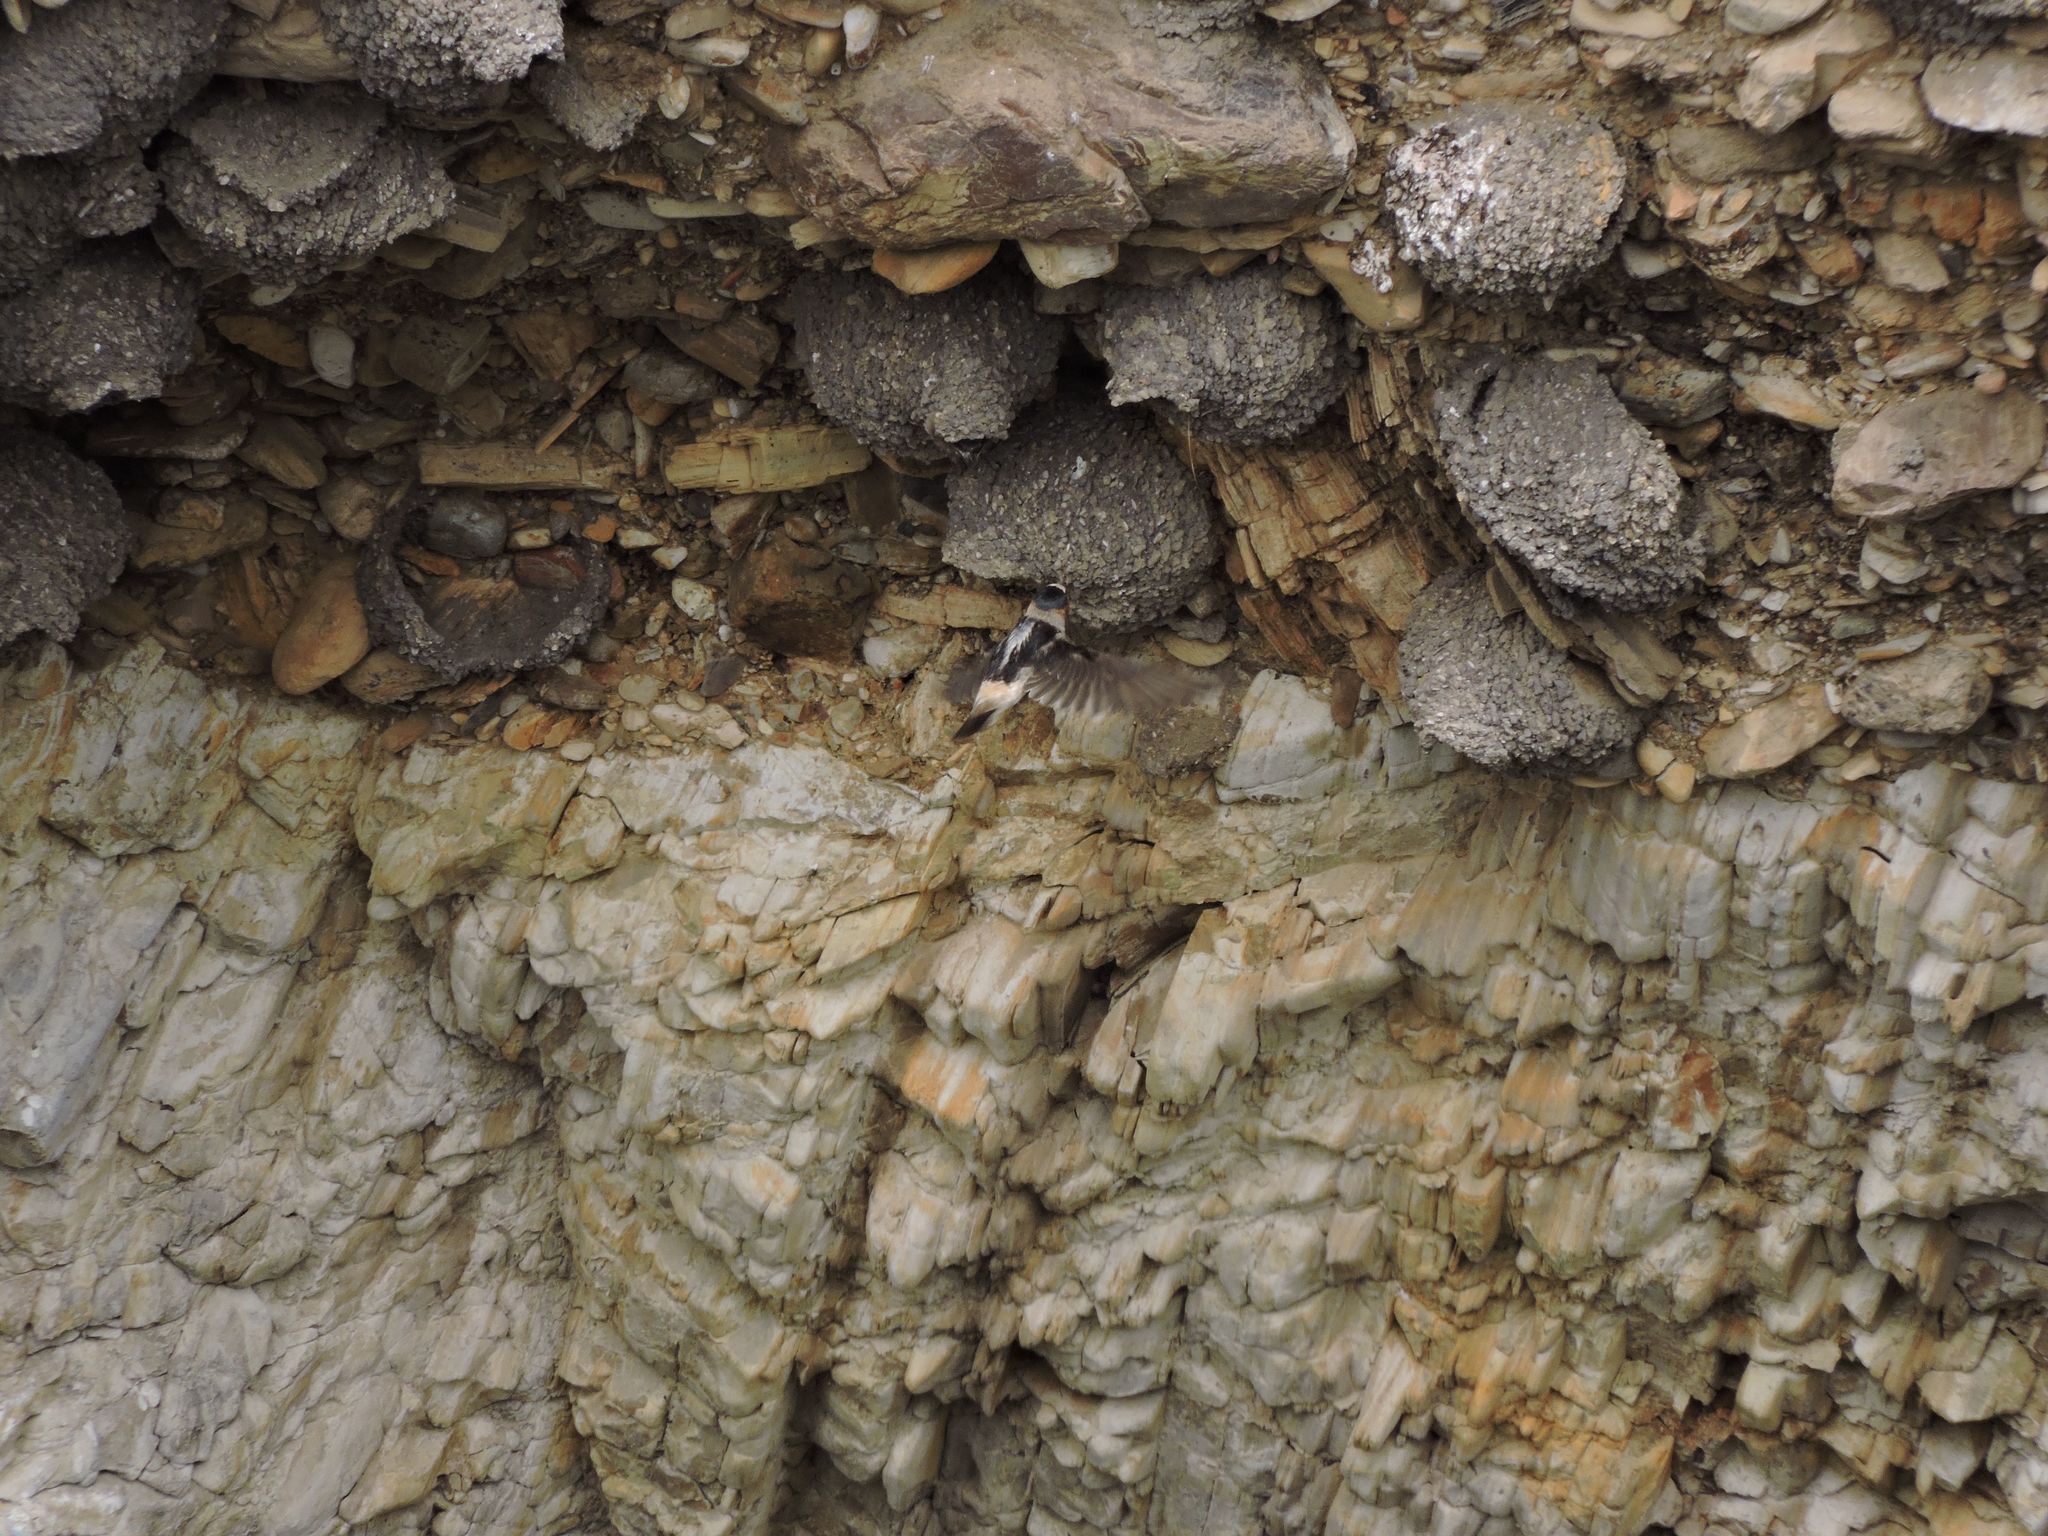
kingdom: Animalia
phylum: Chordata
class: Aves
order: Passeriformes
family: Hirundinidae
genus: Petrochelidon
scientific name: Petrochelidon pyrrhonota
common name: American cliff swallow
